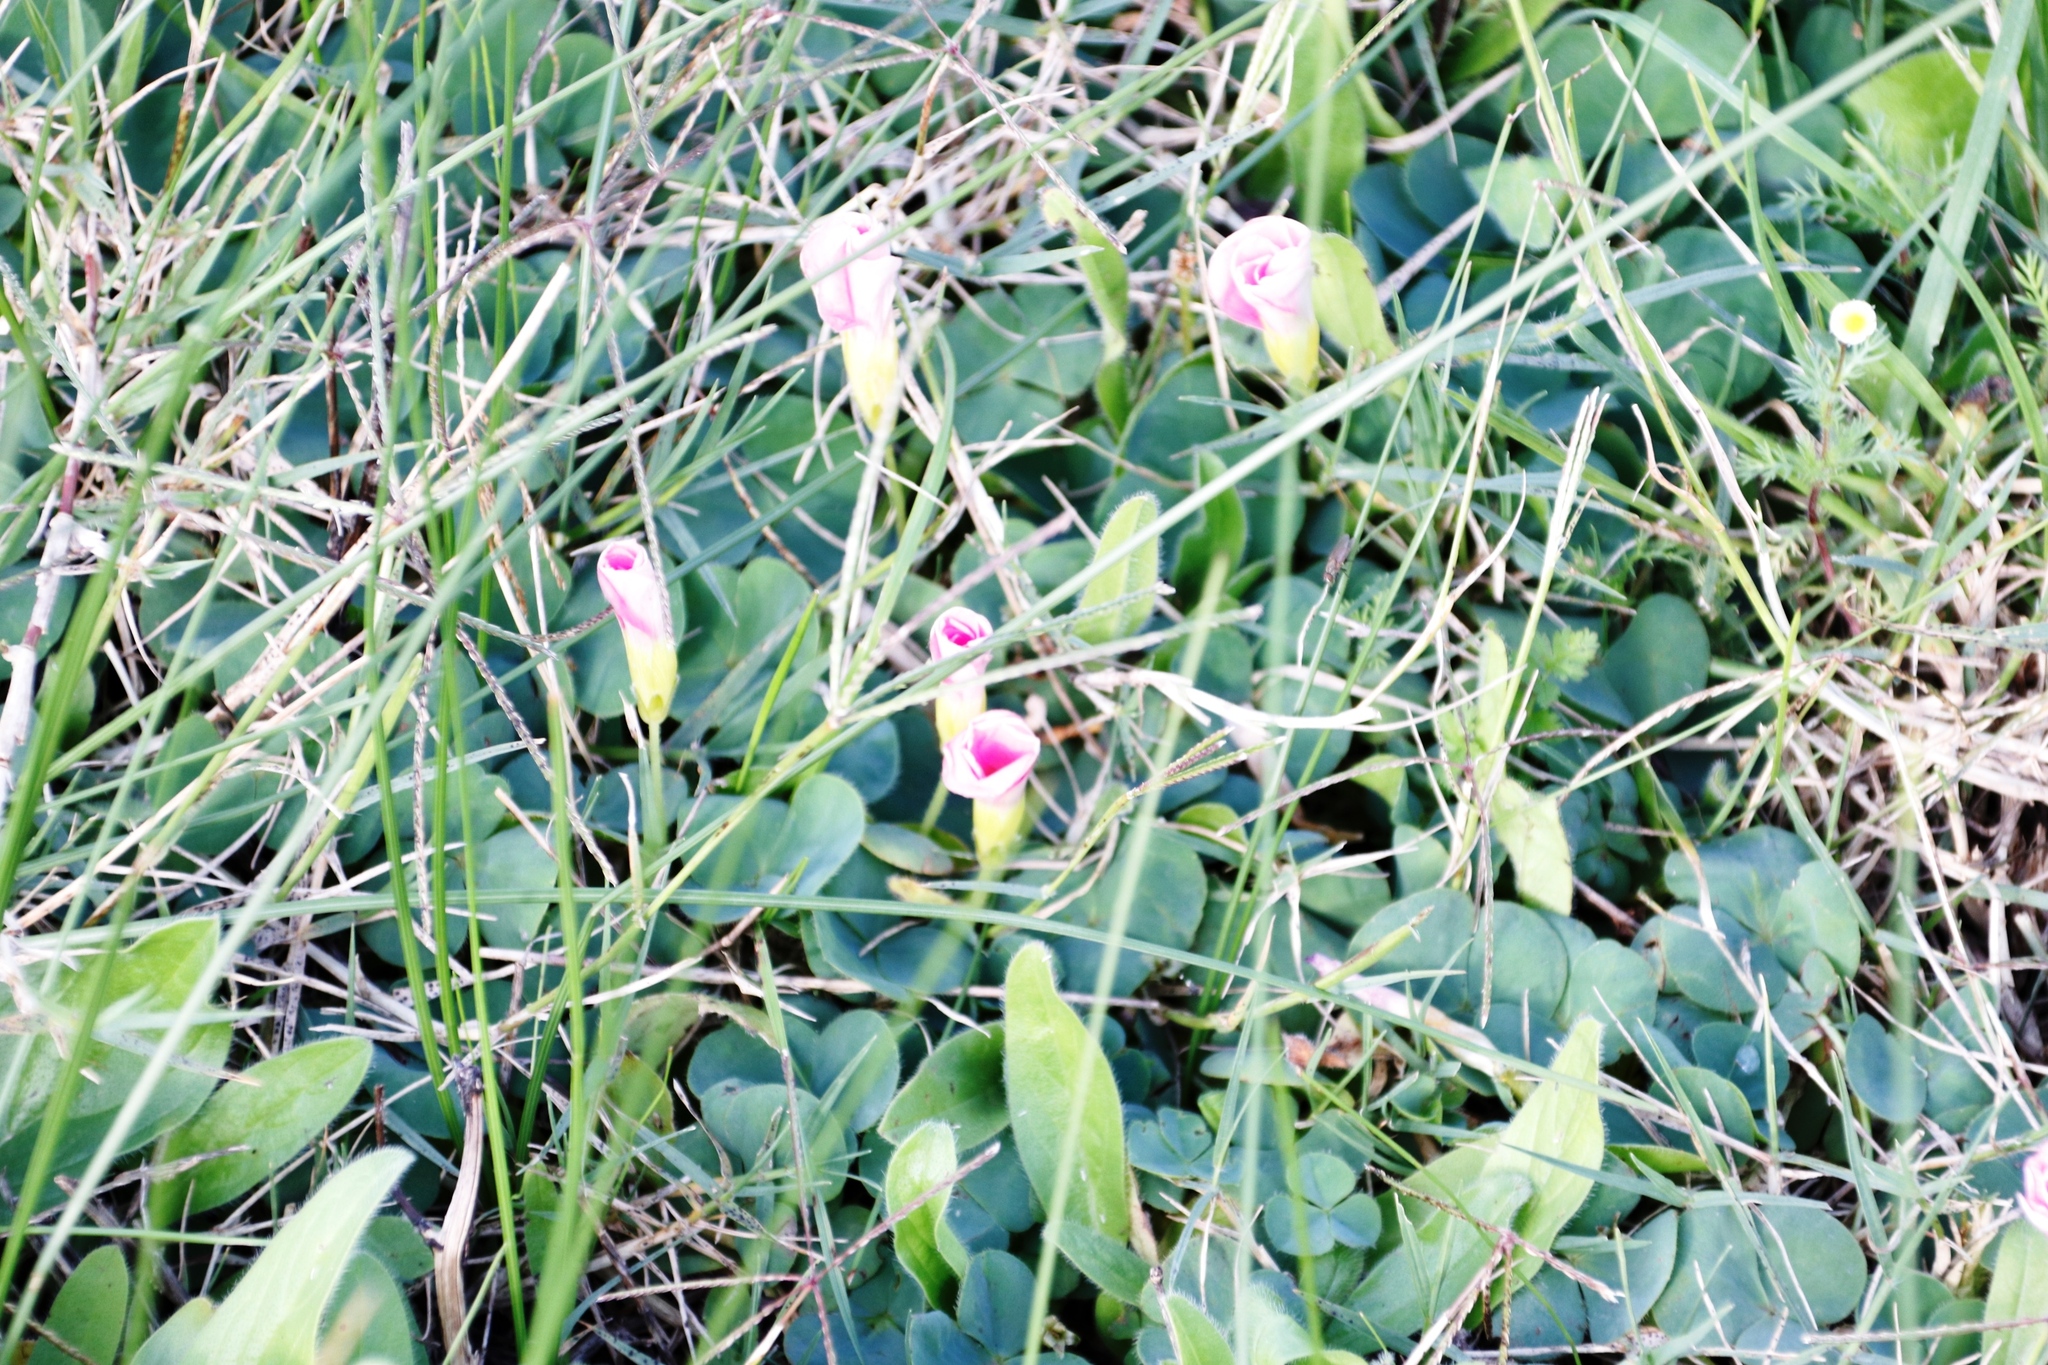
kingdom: Plantae
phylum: Tracheophyta
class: Magnoliopsida
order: Oxalidales
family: Oxalidaceae
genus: Oxalis
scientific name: Oxalis purpurea
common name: Purple woodsorrel
